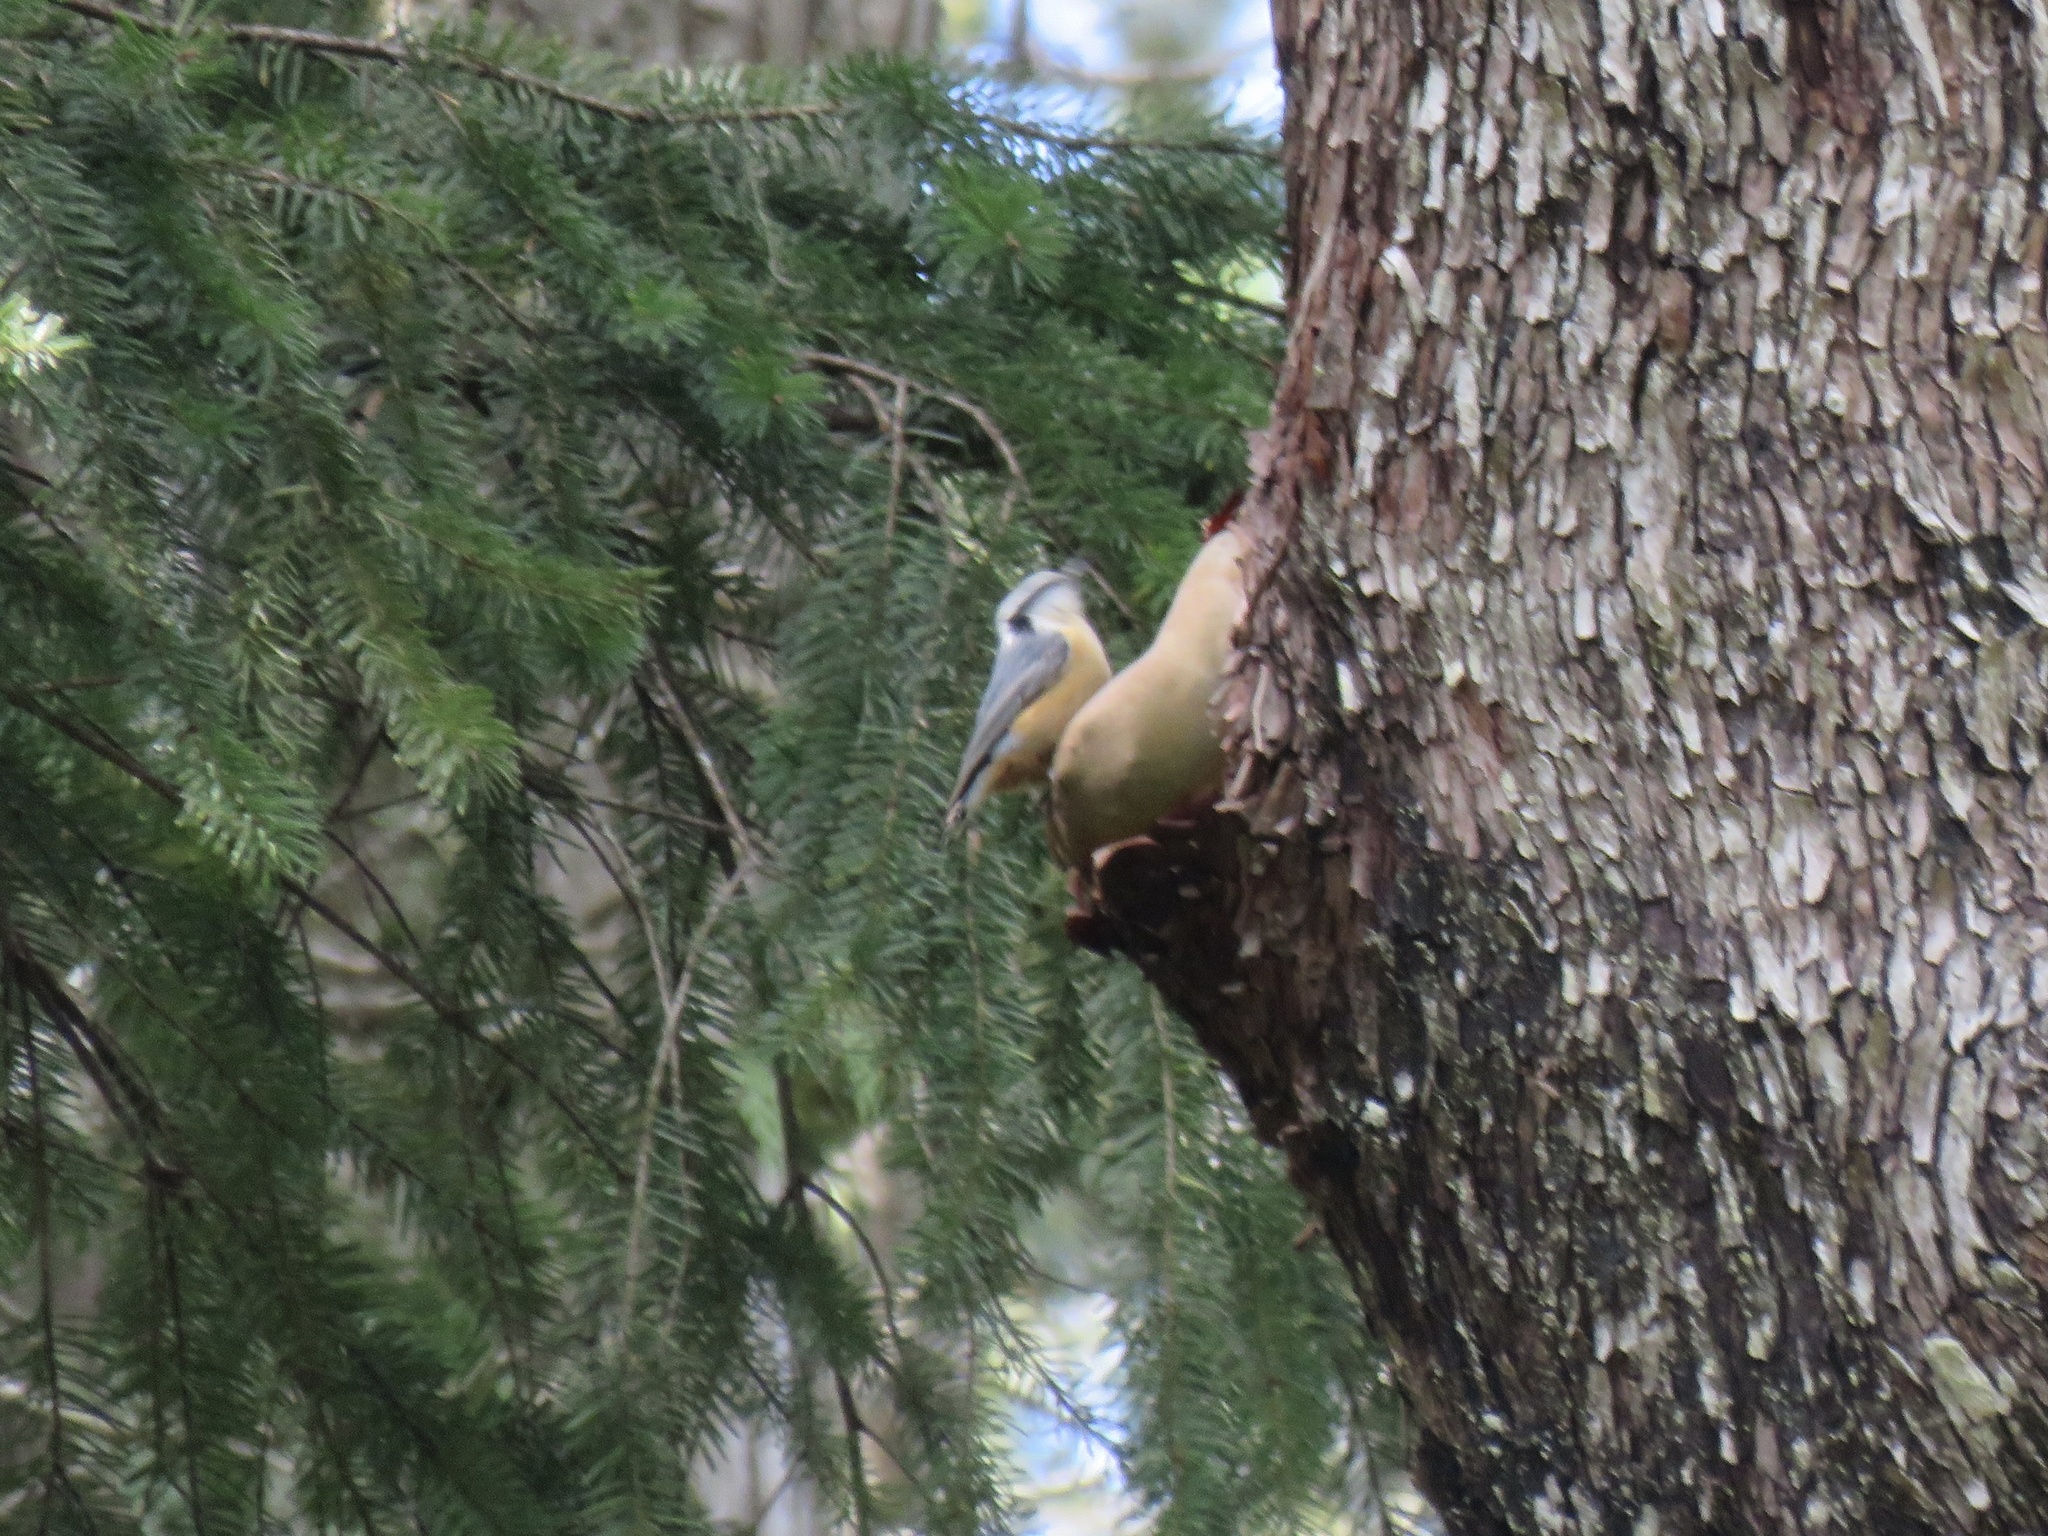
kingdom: Animalia
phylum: Chordata
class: Aves
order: Passeriformes
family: Sittidae
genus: Sitta
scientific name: Sitta canadensis
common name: Red-breasted nuthatch
